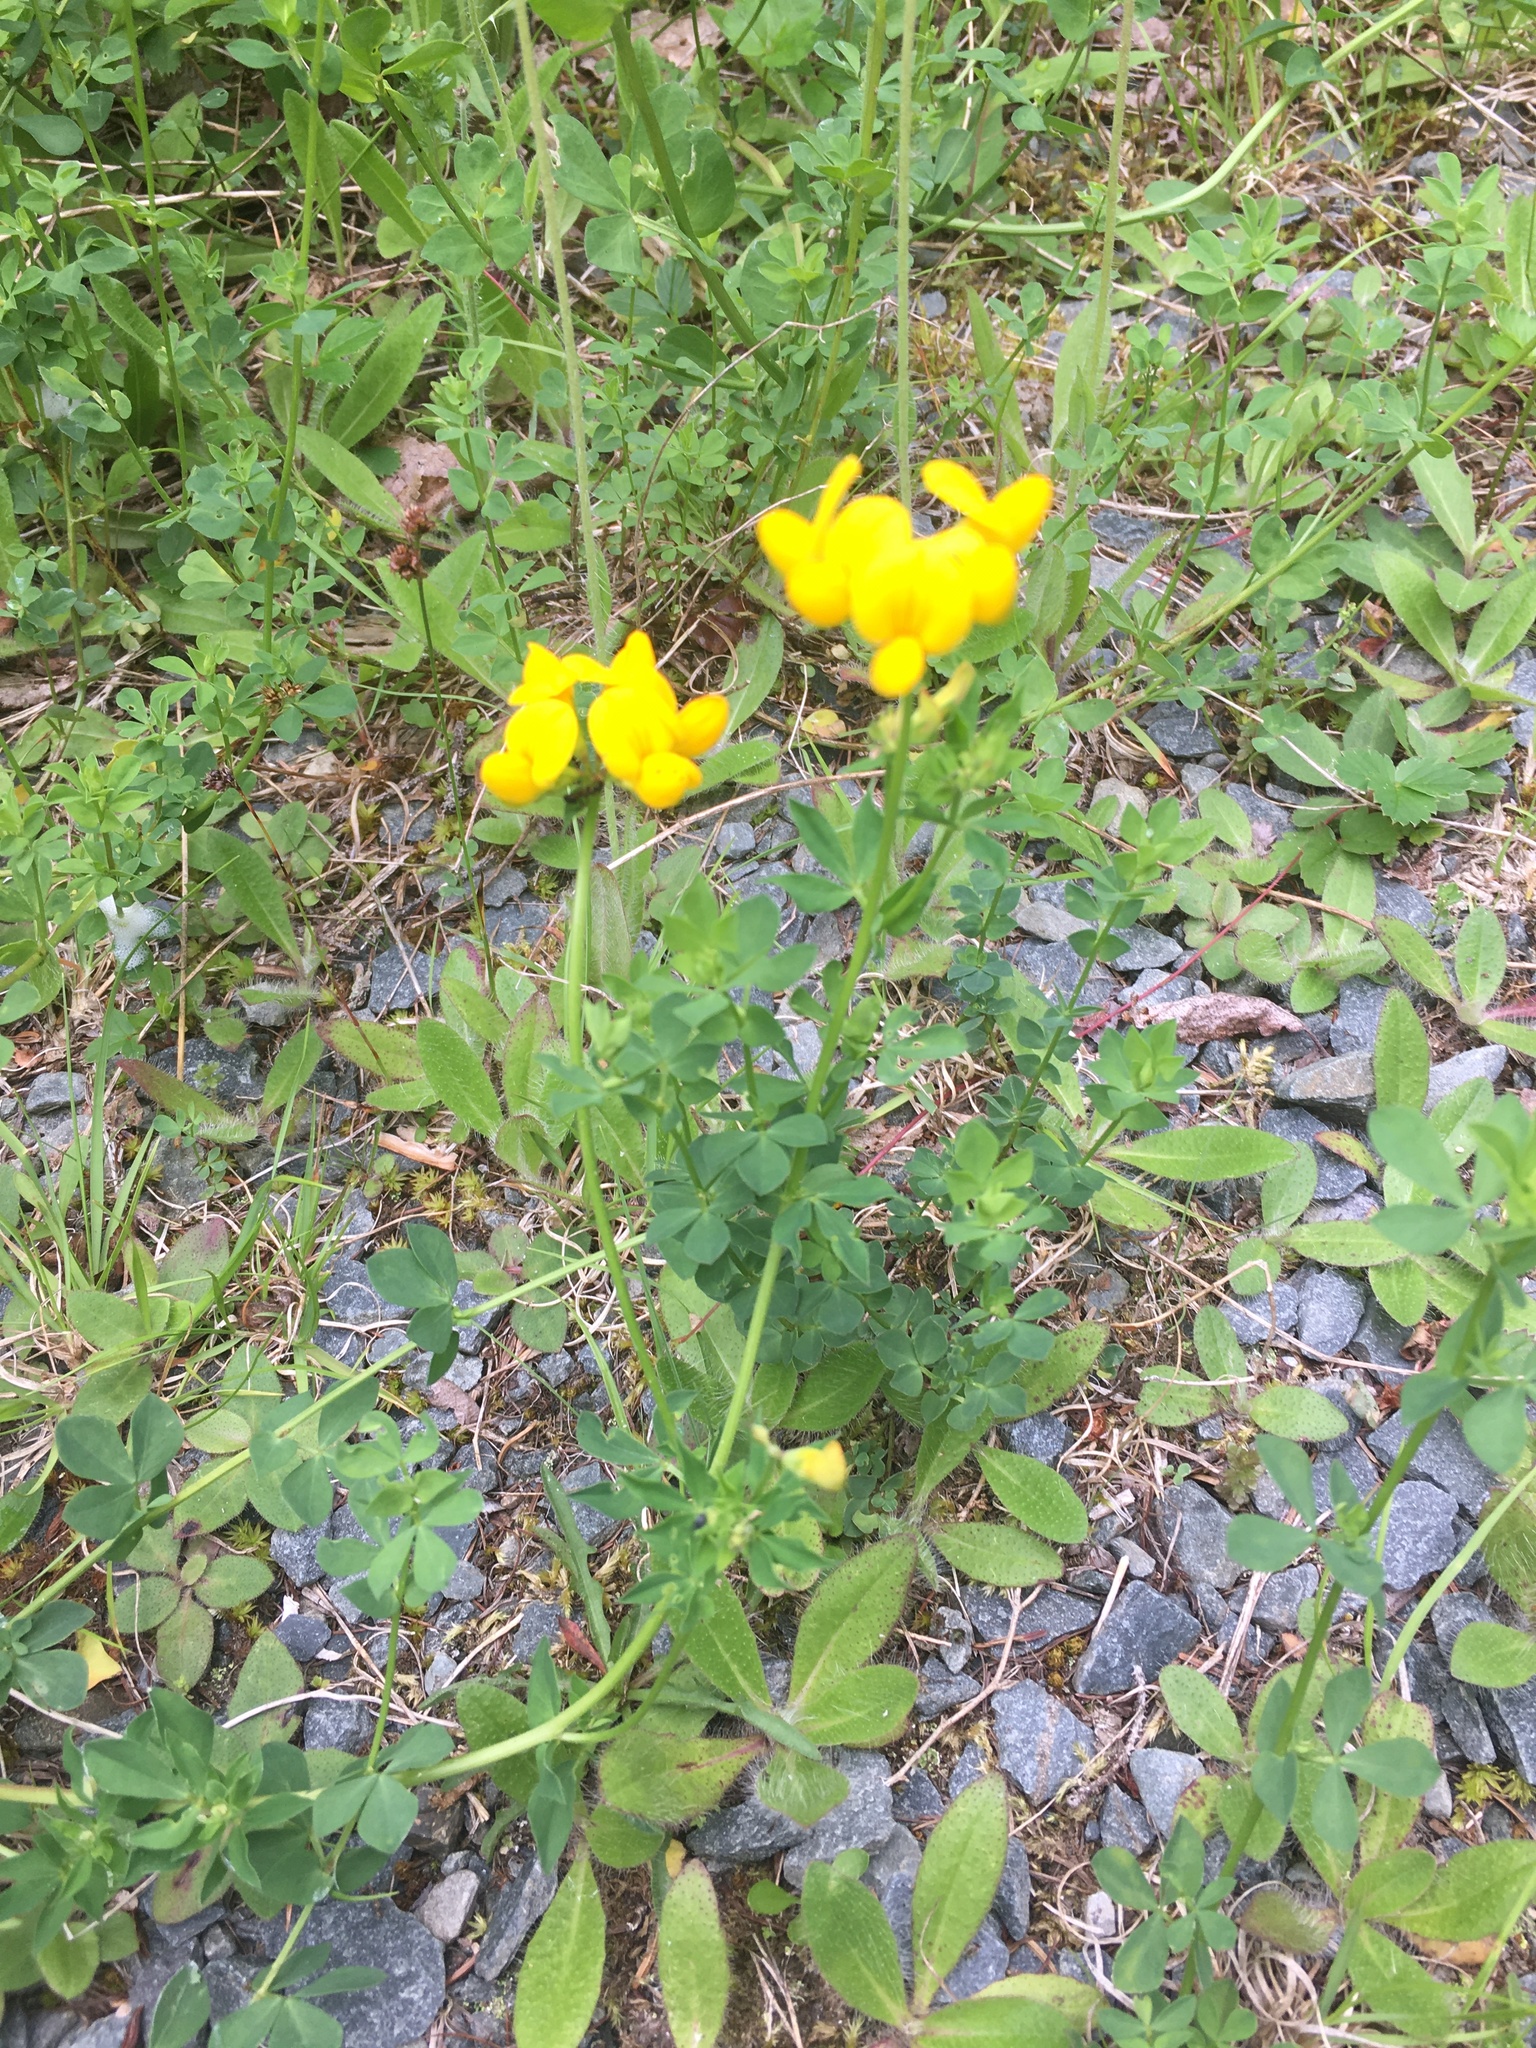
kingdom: Plantae
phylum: Tracheophyta
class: Magnoliopsida
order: Fabales
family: Fabaceae
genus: Lotus
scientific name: Lotus corniculatus
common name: Common bird's-foot-trefoil
